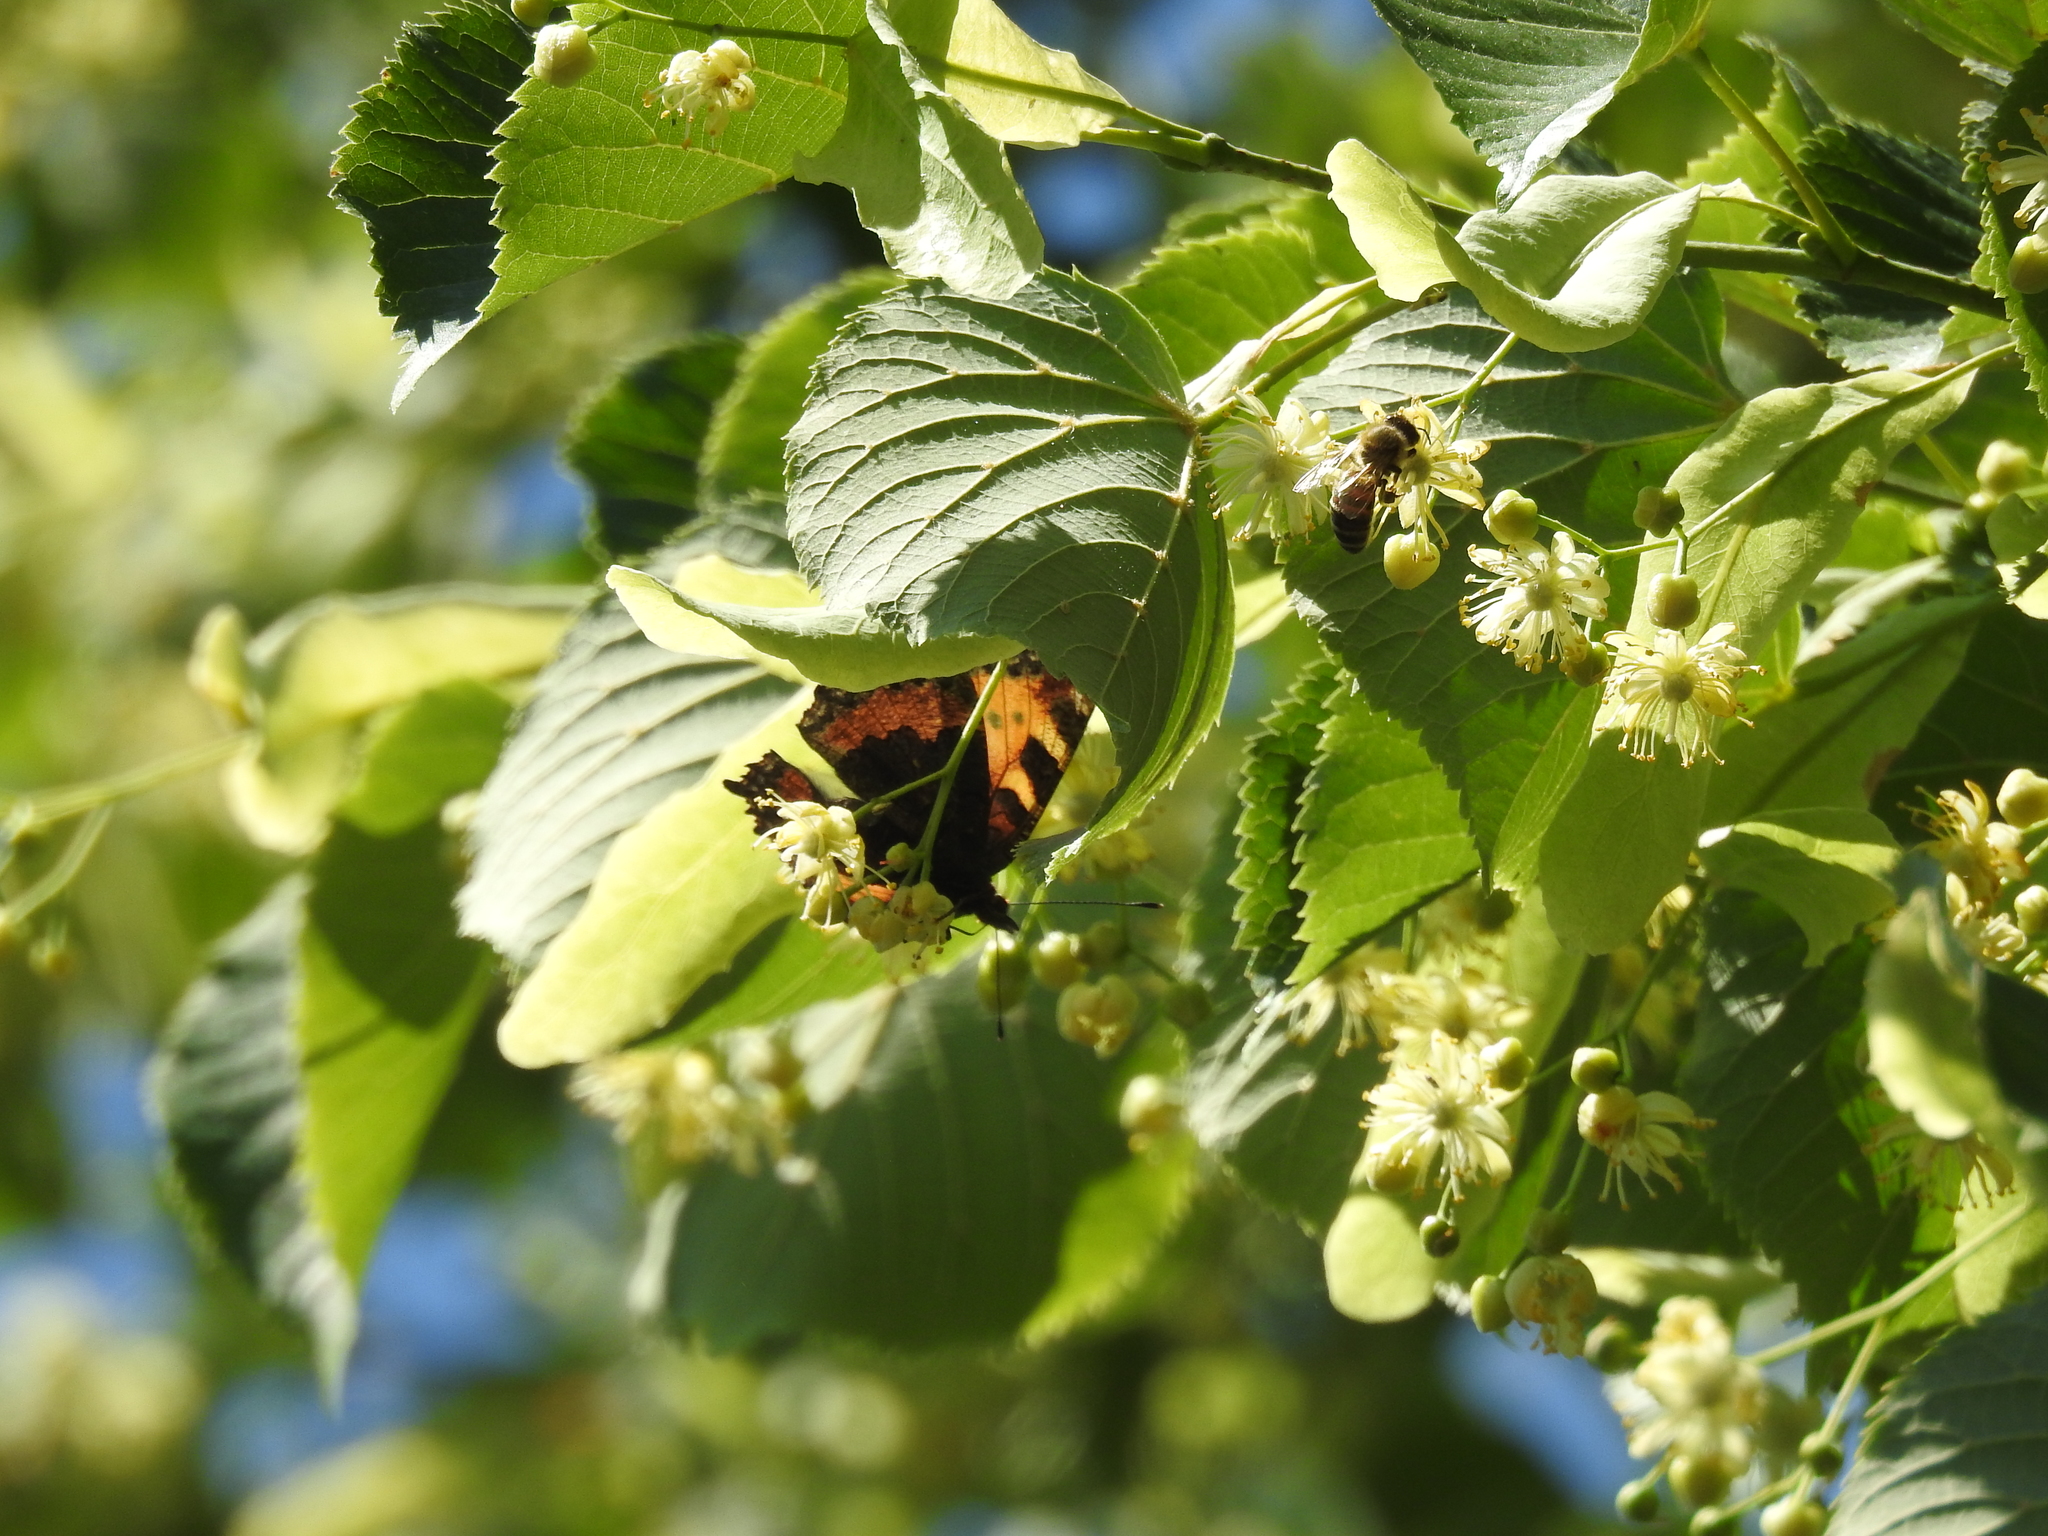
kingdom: Animalia
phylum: Arthropoda
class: Insecta
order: Lepidoptera
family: Nymphalidae
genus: Aglais
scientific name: Aglais urticae
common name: Small tortoiseshell
